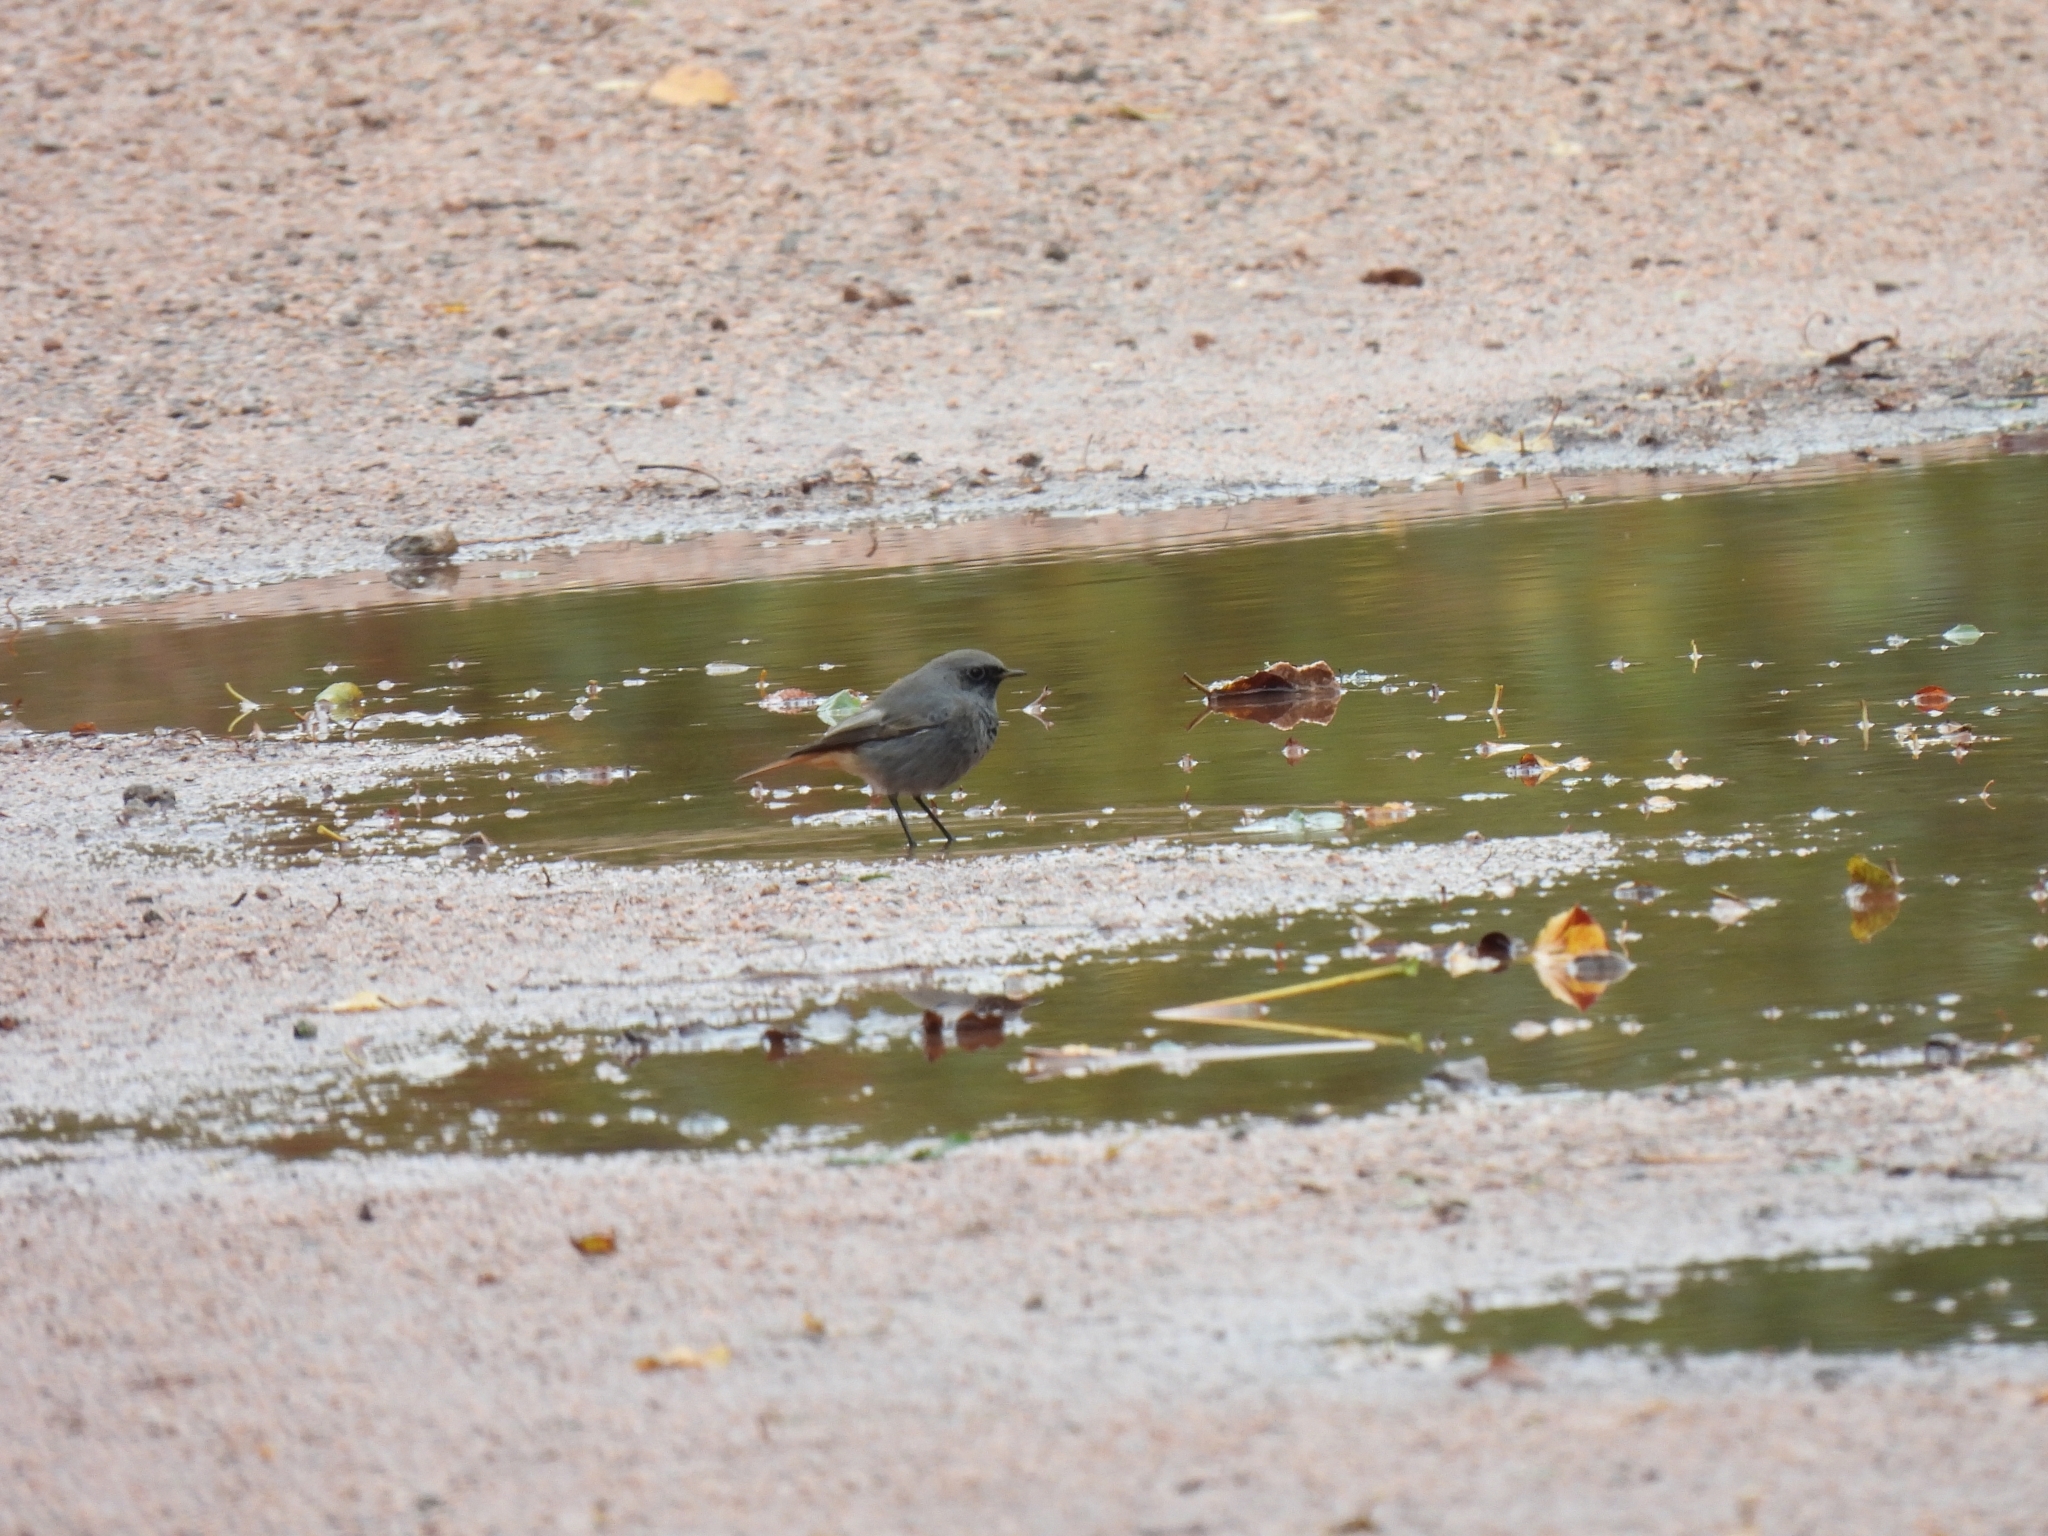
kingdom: Animalia
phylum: Chordata
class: Aves
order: Passeriformes
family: Muscicapidae
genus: Phoenicurus
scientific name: Phoenicurus ochruros
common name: Black redstart
